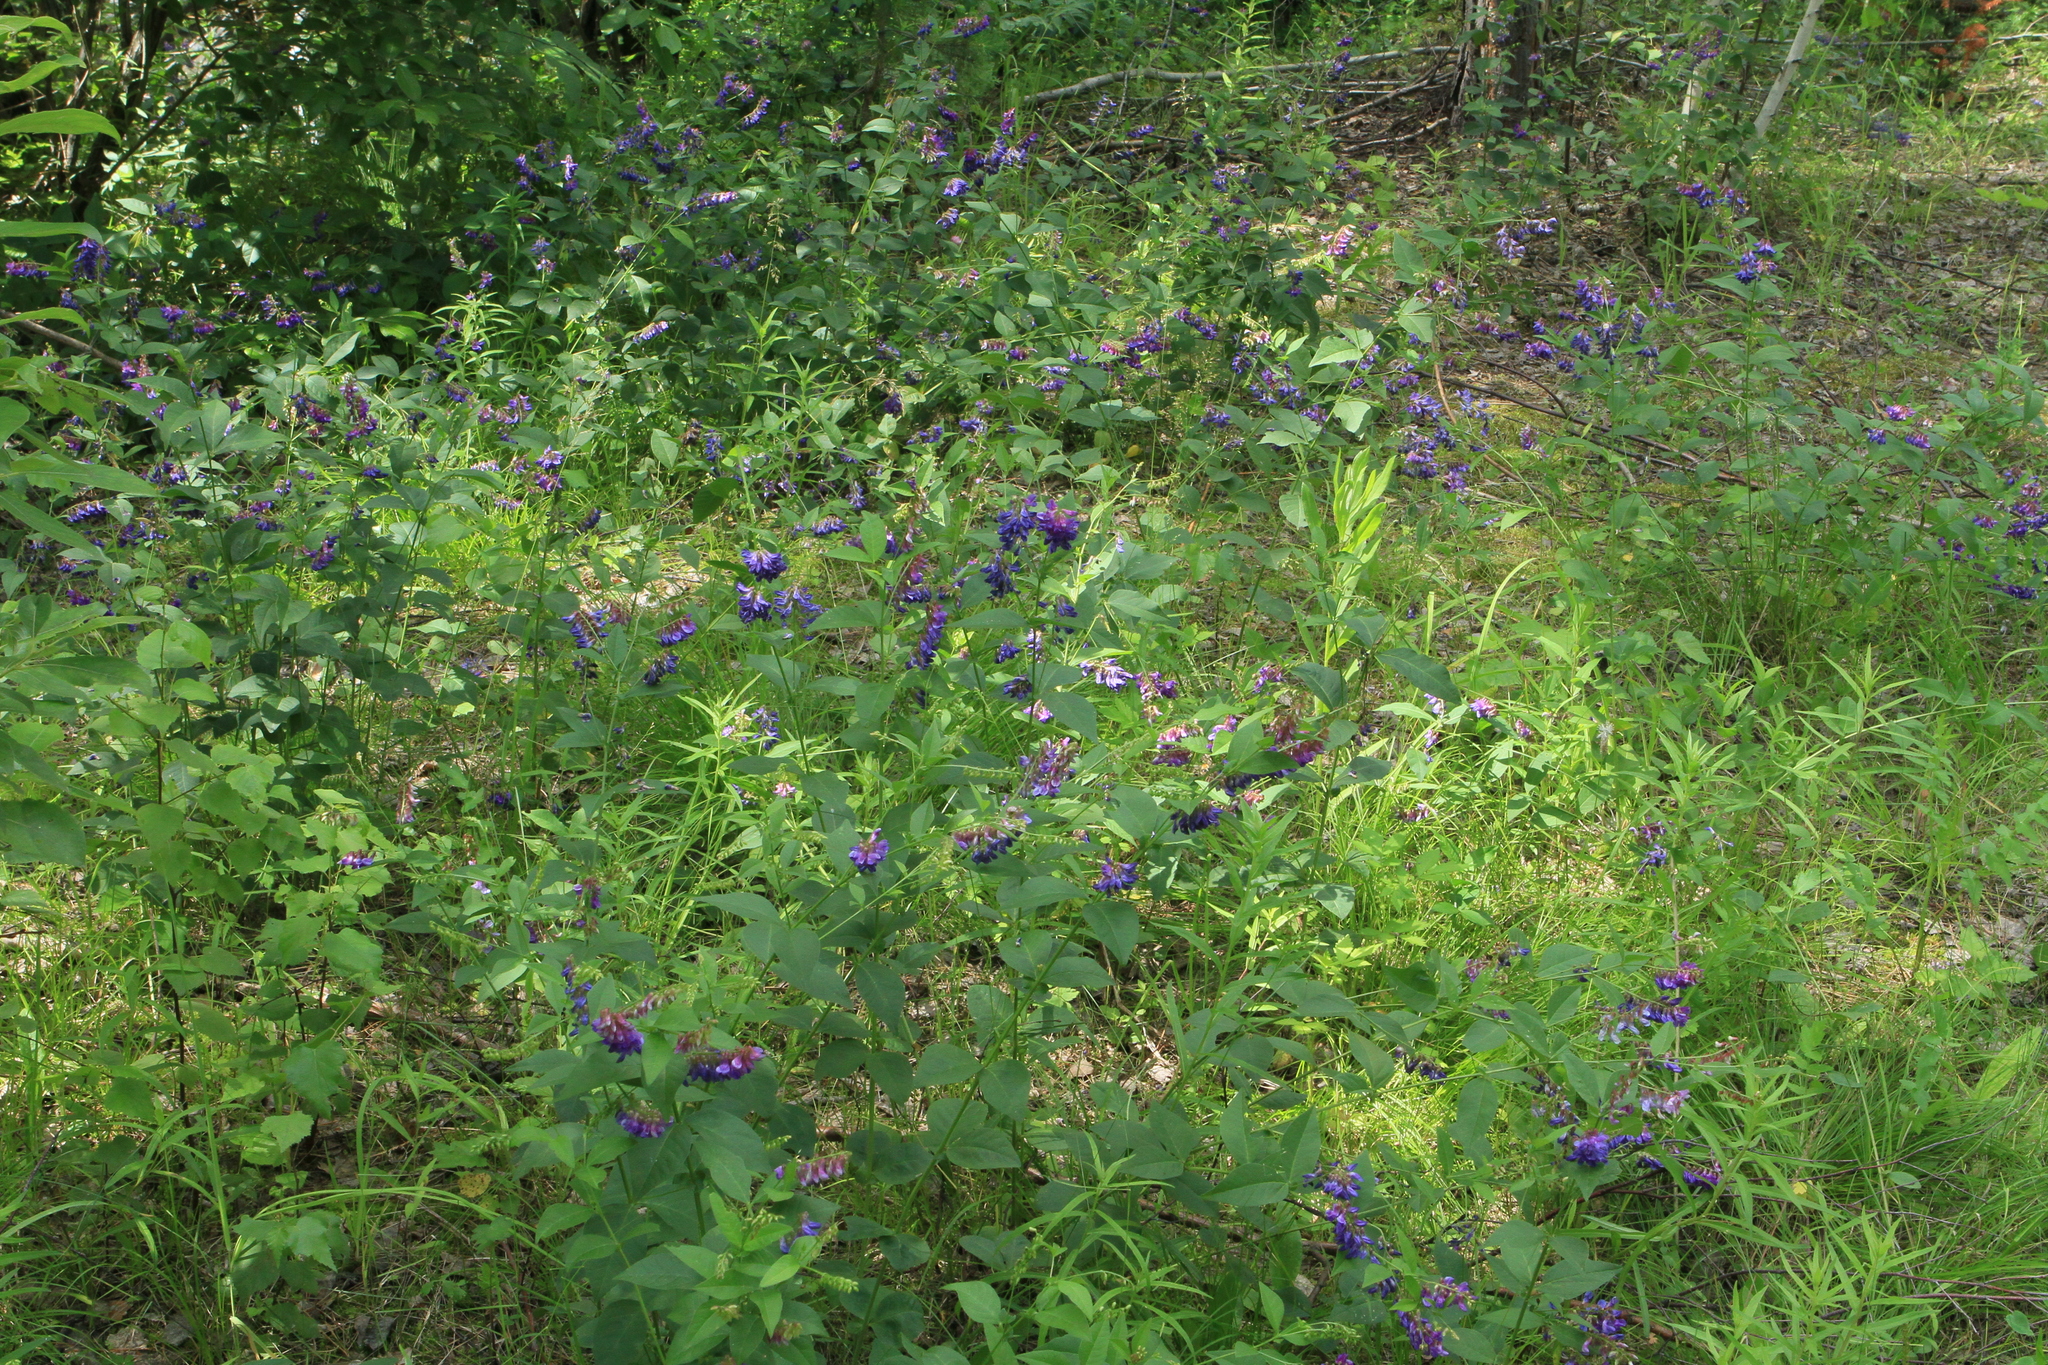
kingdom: Plantae
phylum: Tracheophyta
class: Magnoliopsida
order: Fabales
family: Fabaceae
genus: Vicia
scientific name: Vicia unijuga
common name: Two-leaf vetch
